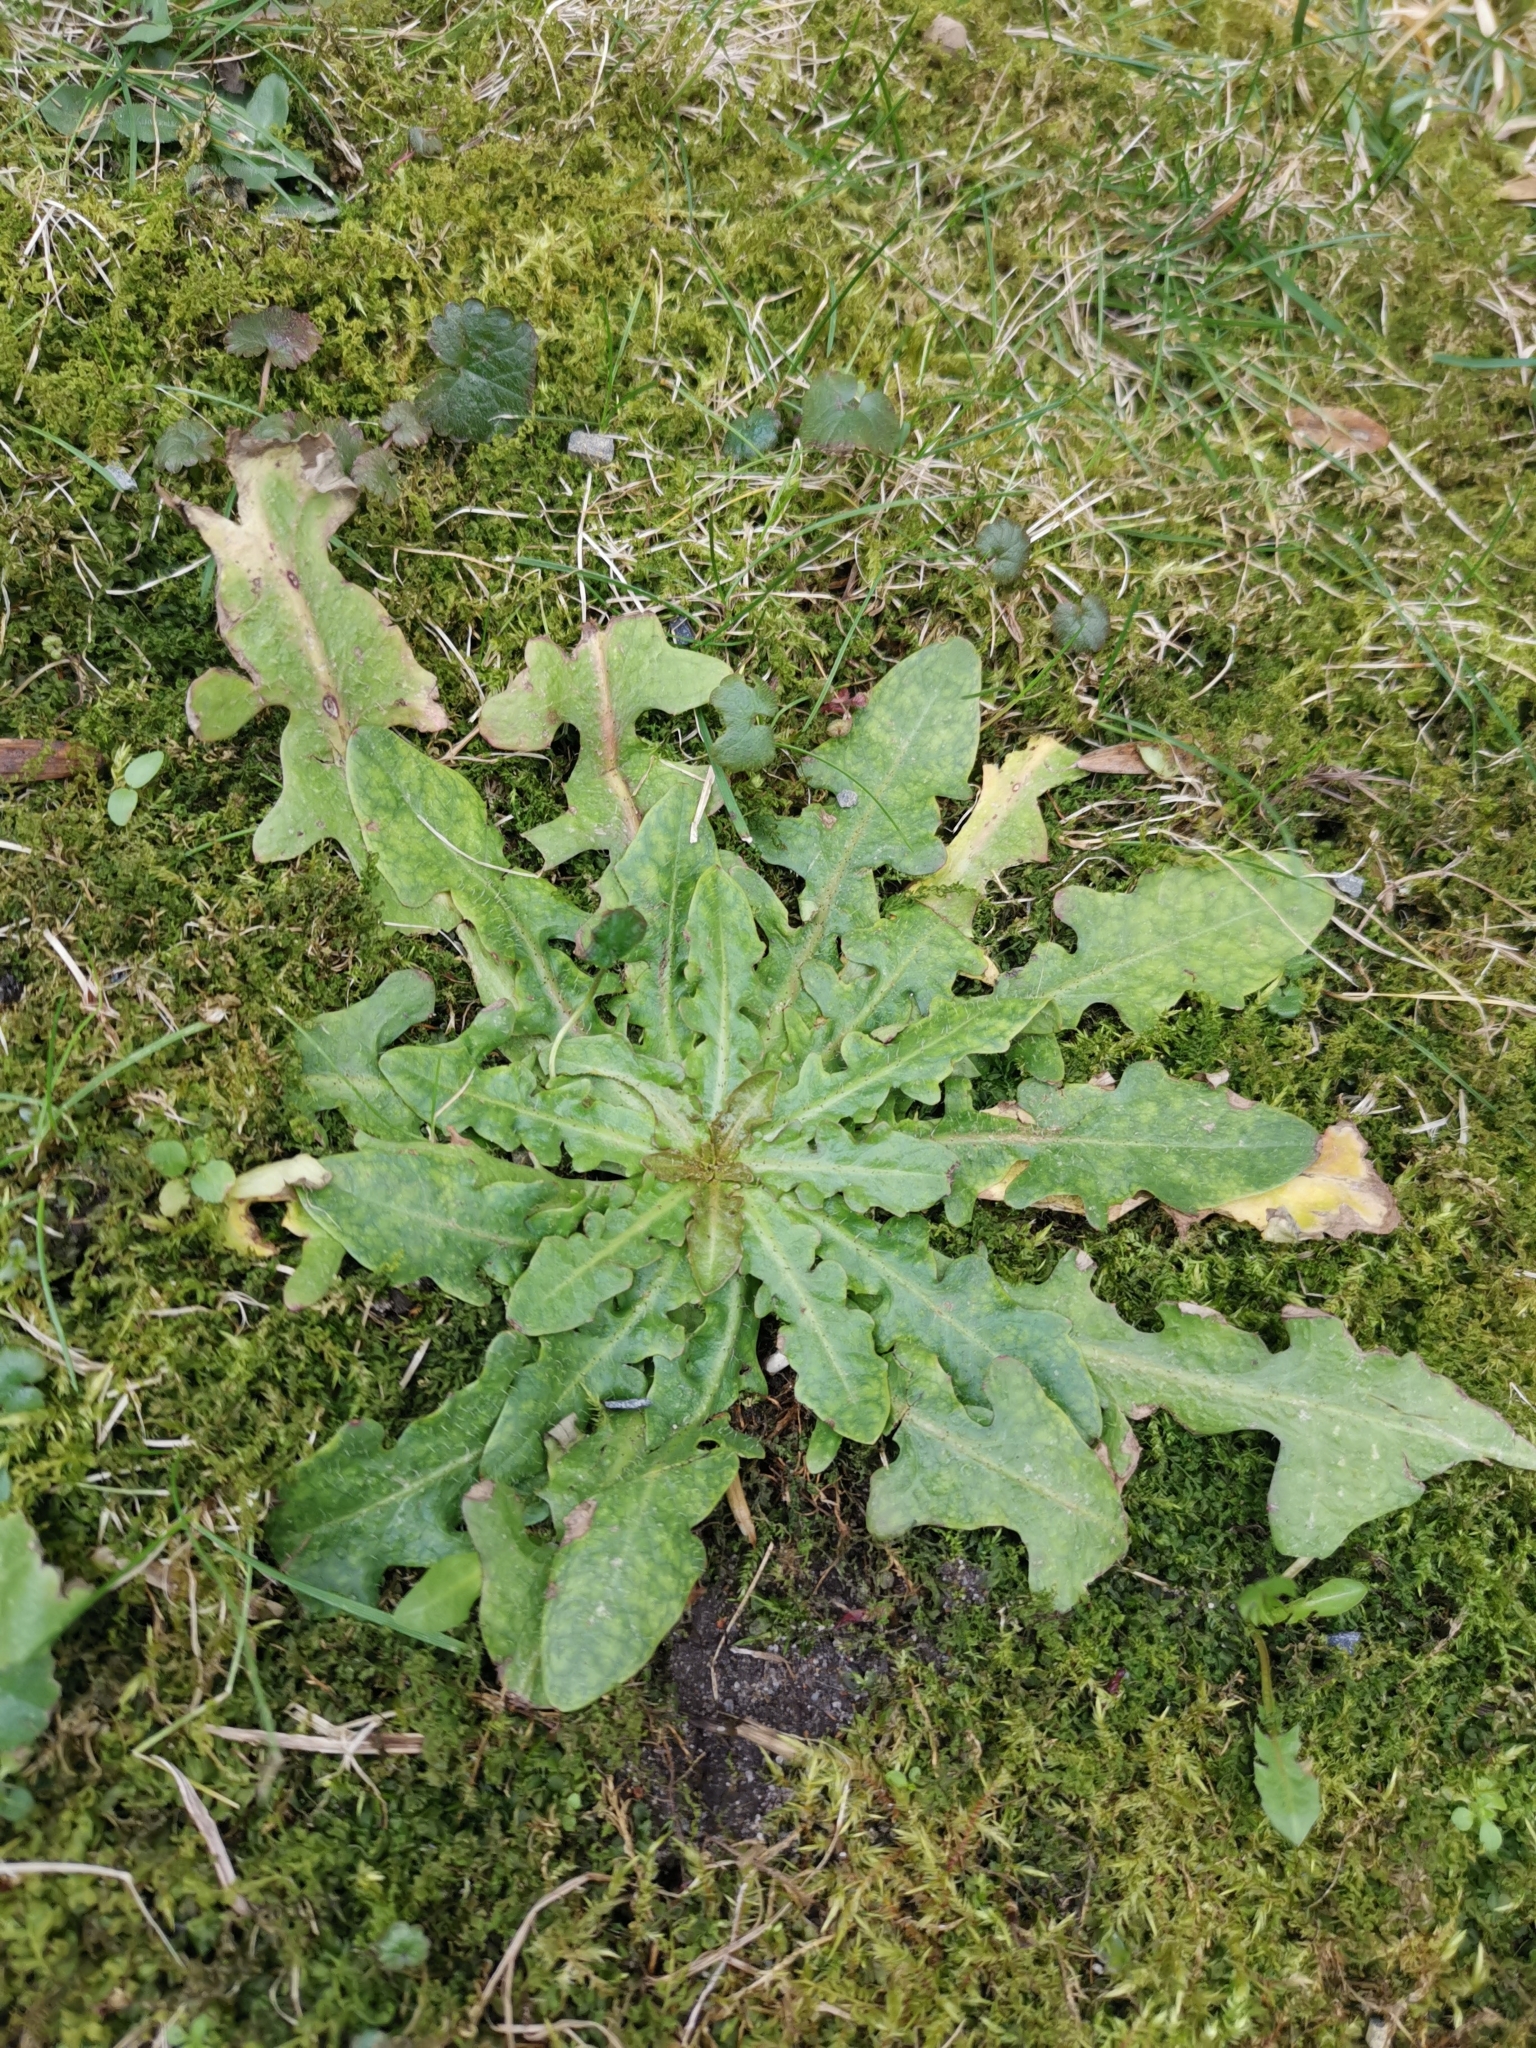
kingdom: Plantae
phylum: Tracheophyta
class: Magnoliopsida
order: Asterales
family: Asteraceae
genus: Hypochaeris
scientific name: Hypochaeris radicata
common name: Flatweed
